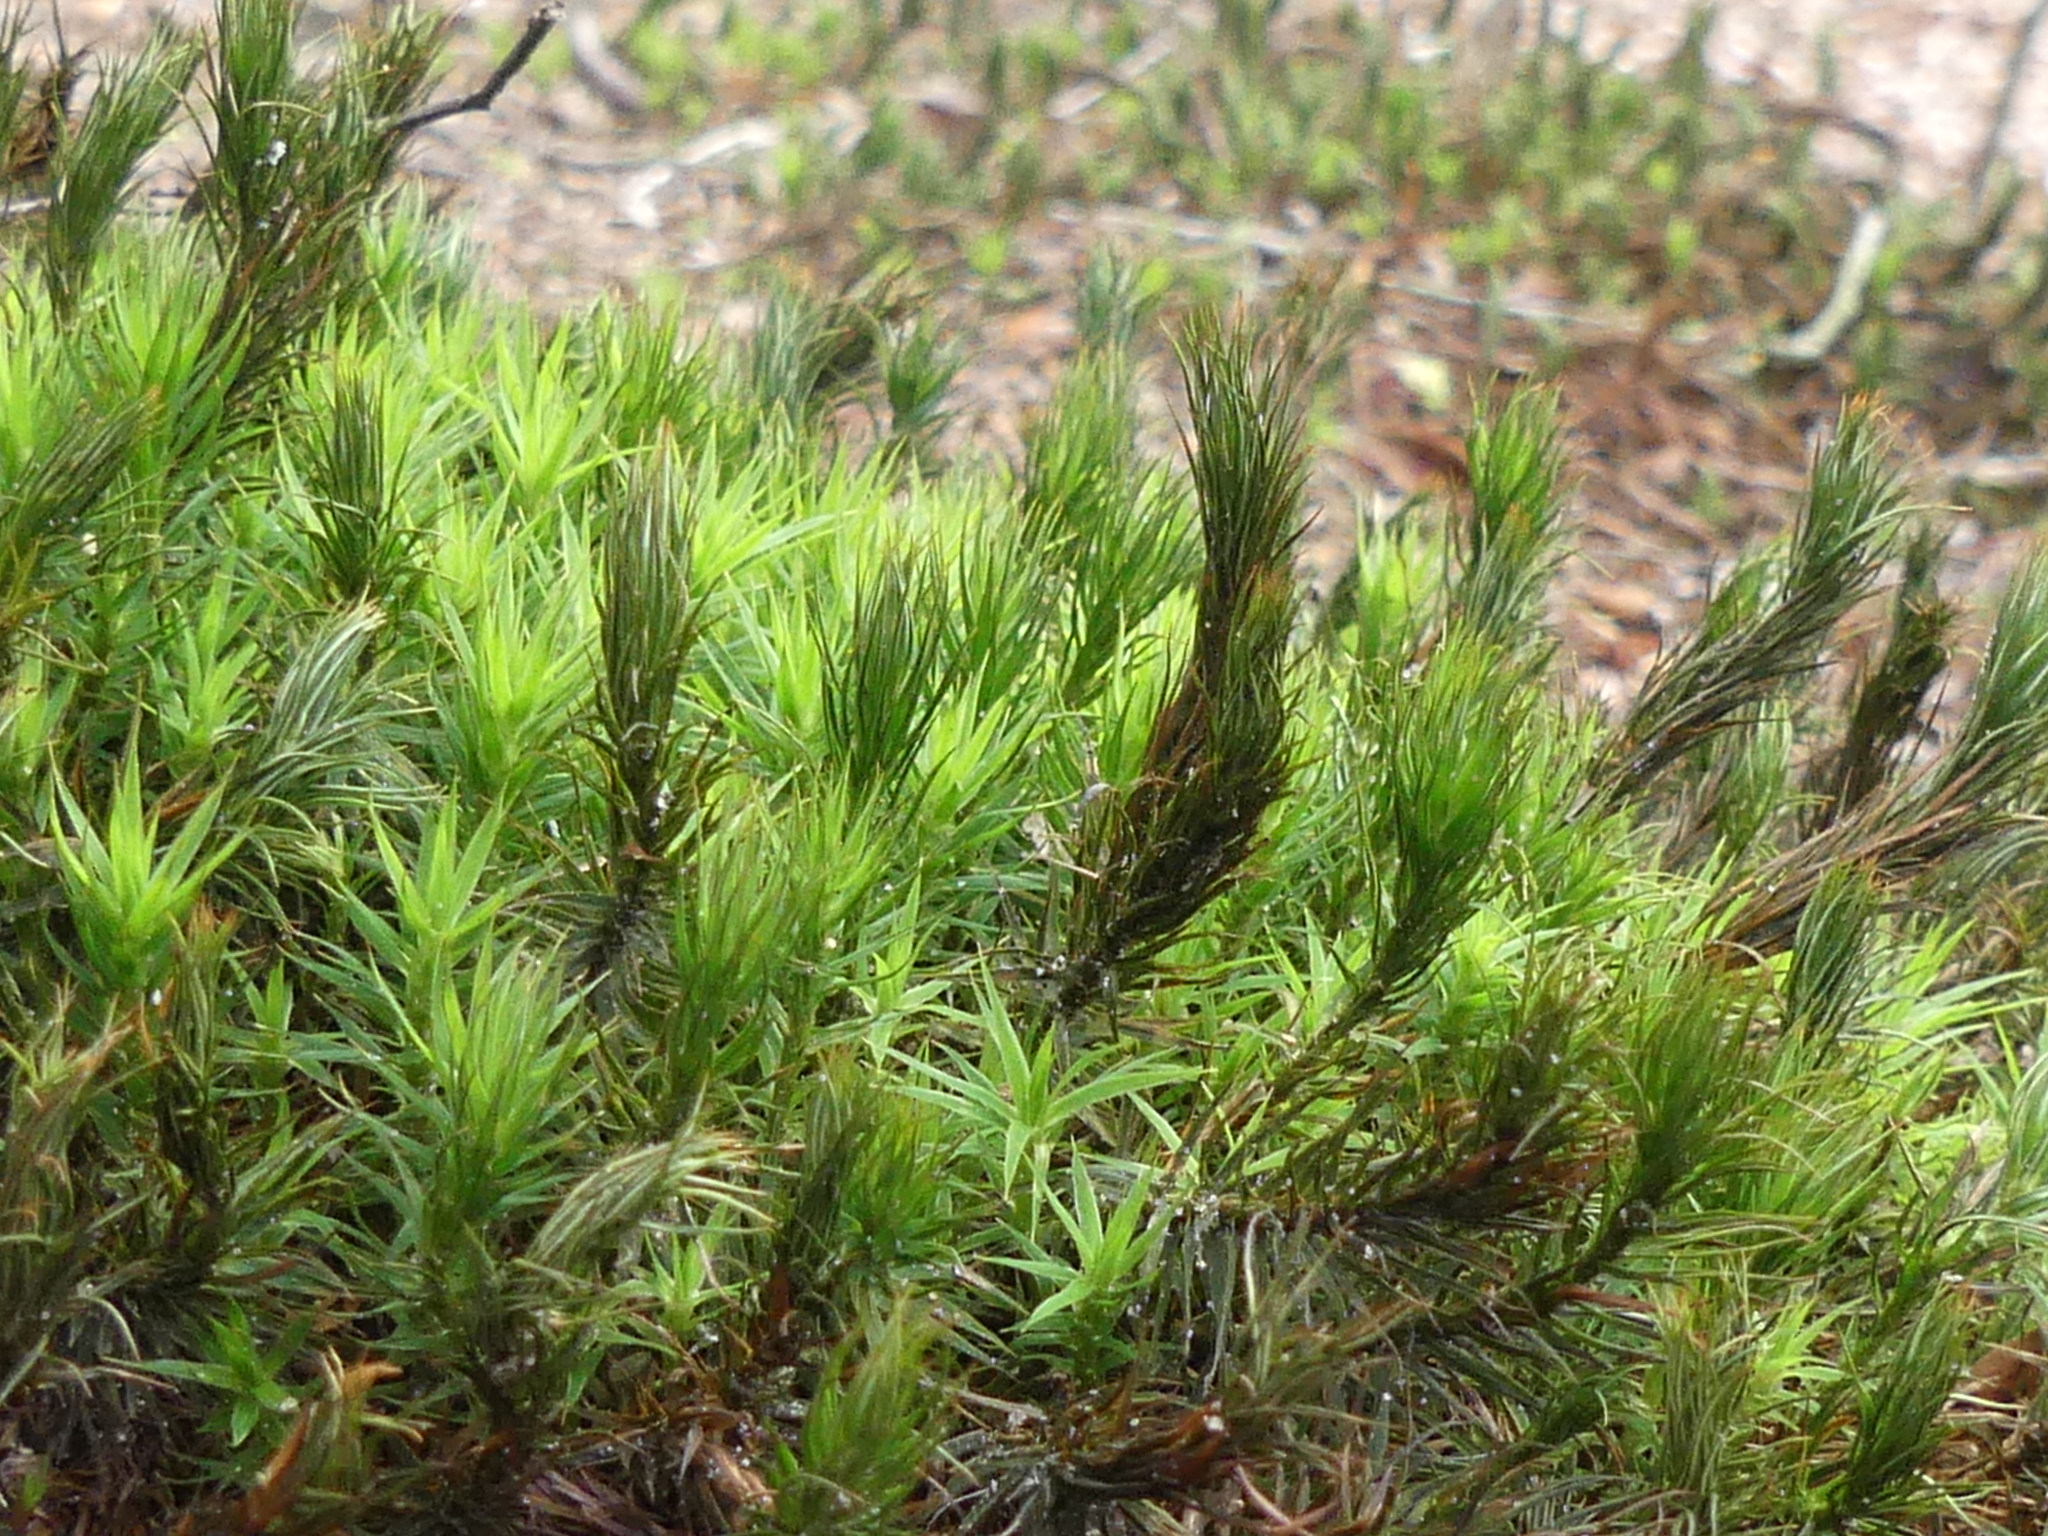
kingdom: Plantae
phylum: Bryophyta
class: Polytrichopsida
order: Polytrichales
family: Polytrichaceae
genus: Polytrichum
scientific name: Polytrichum formosum
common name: Bank haircap moss
